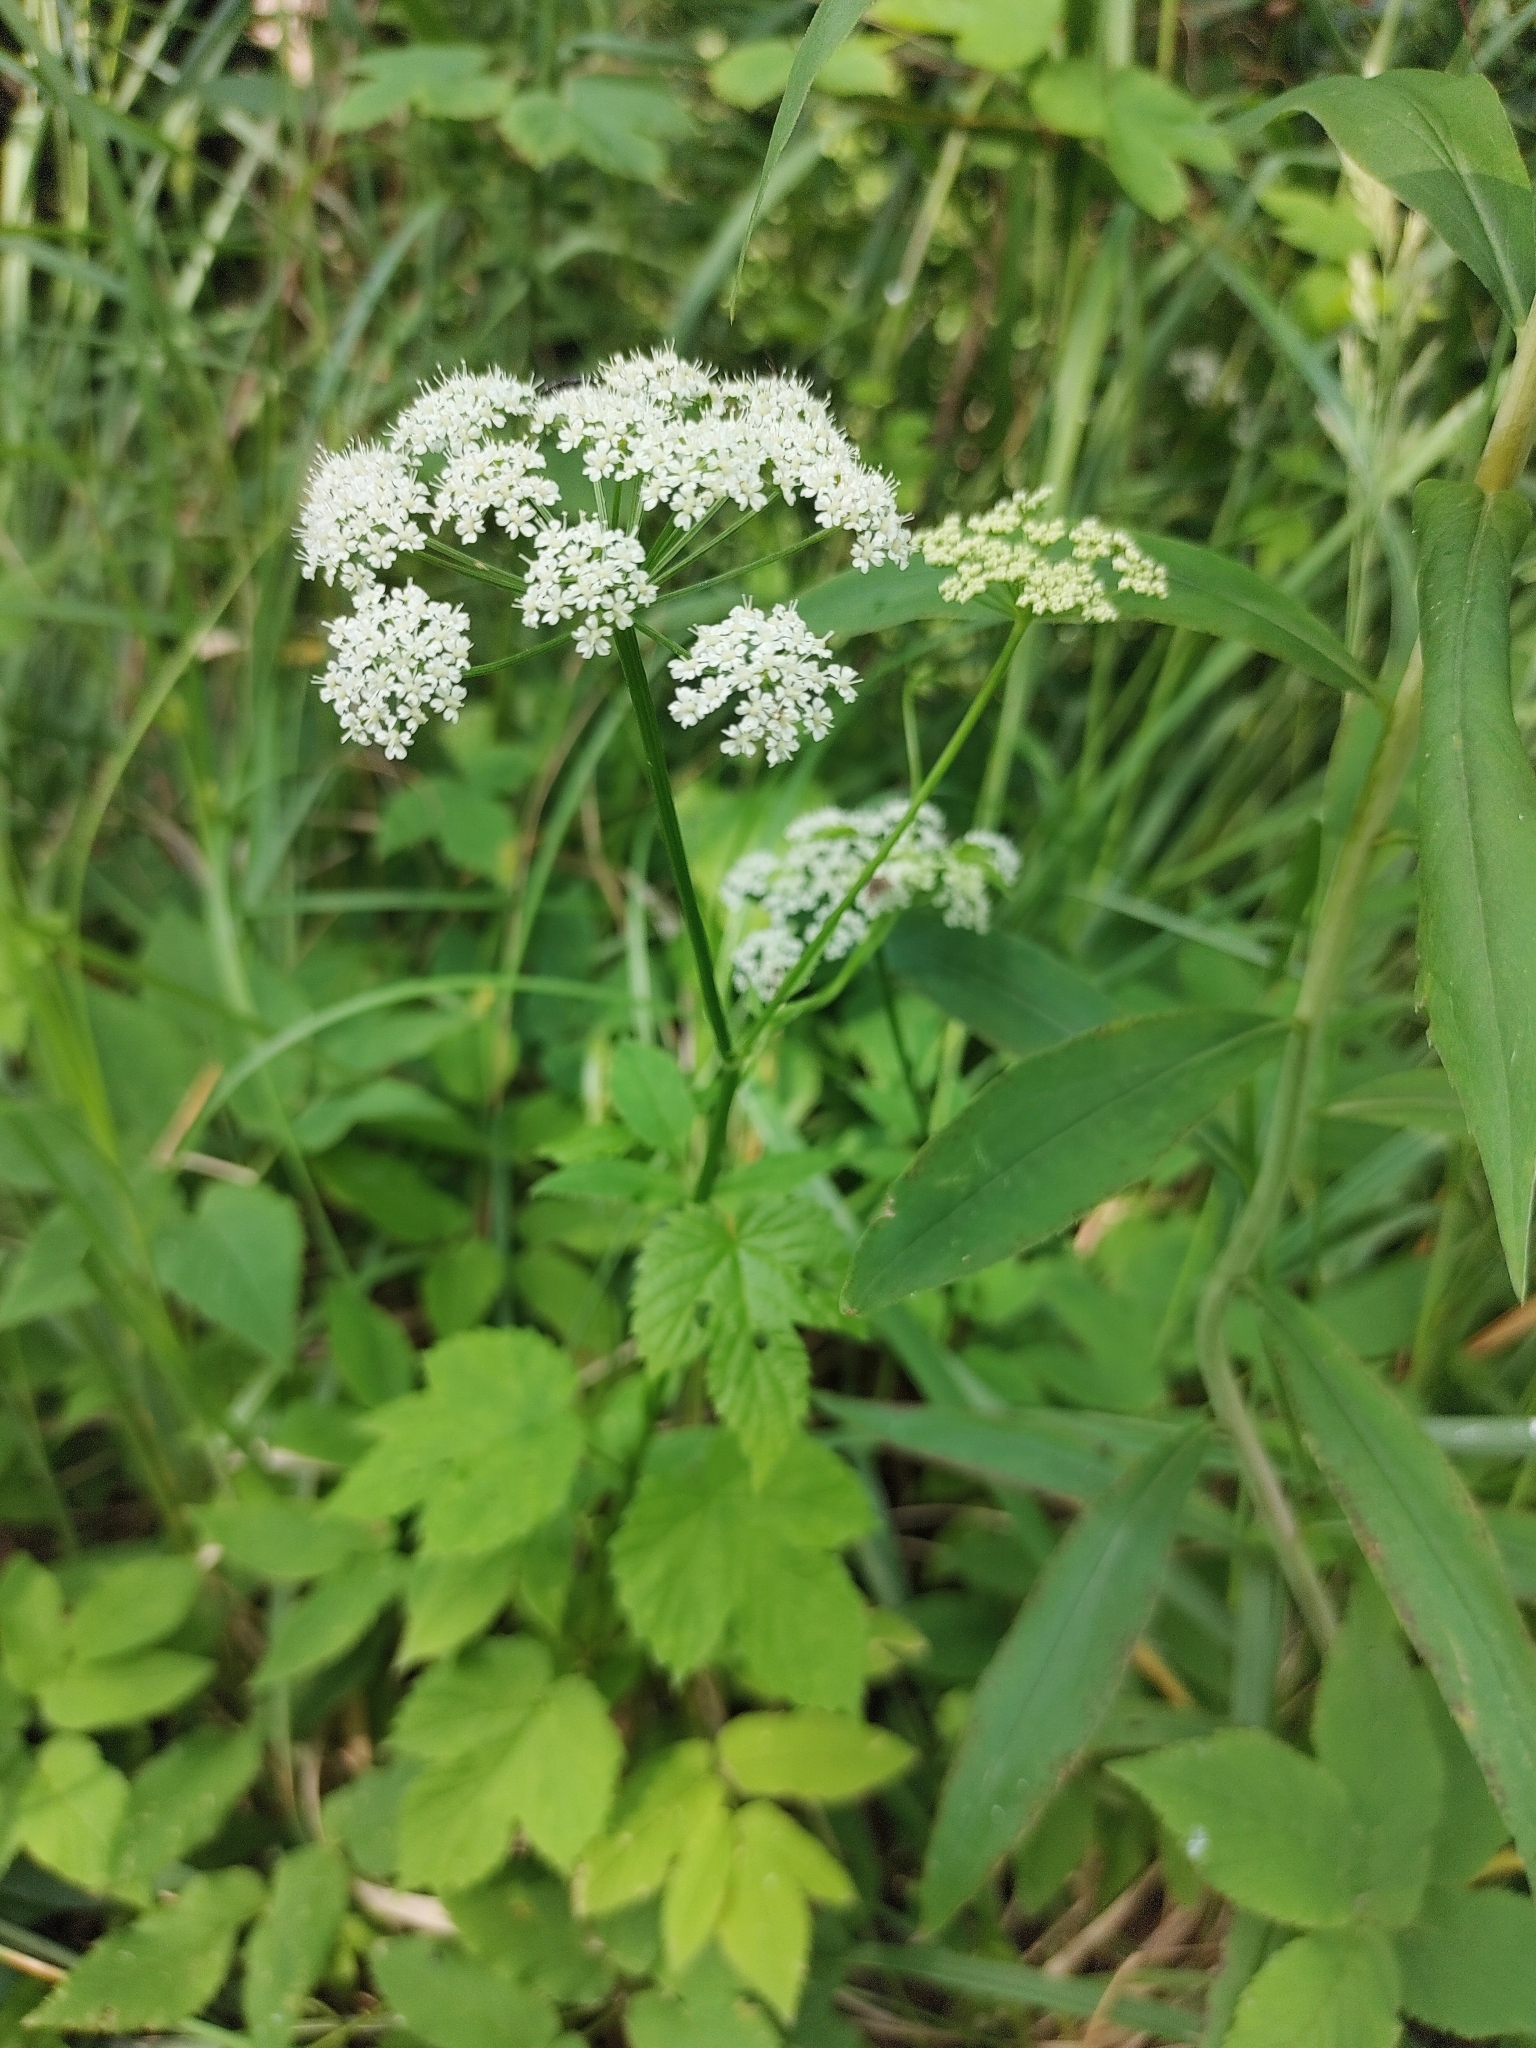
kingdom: Plantae
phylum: Tracheophyta
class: Magnoliopsida
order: Apiales
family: Apiaceae
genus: Aegopodium
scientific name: Aegopodium podagraria
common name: Ground-elder
